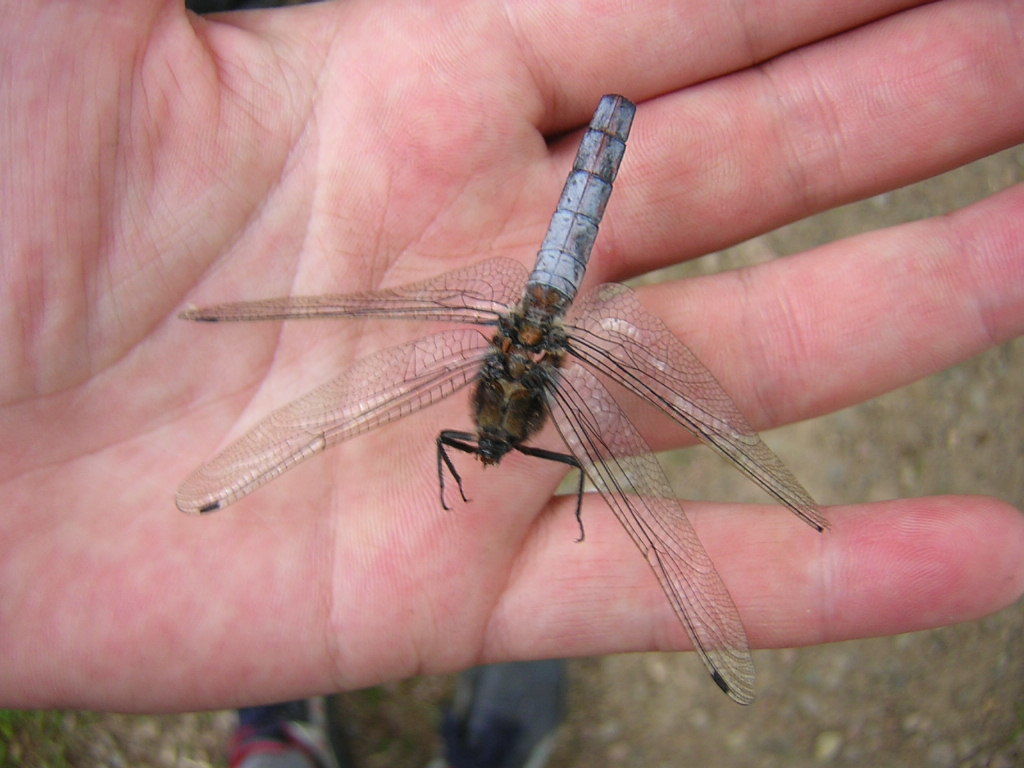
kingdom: Animalia
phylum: Arthropoda
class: Insecta
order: Odonata
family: Libellulidae
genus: Orthetrum
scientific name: Orthetrum cancellatum
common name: Black-tailed skimmer
